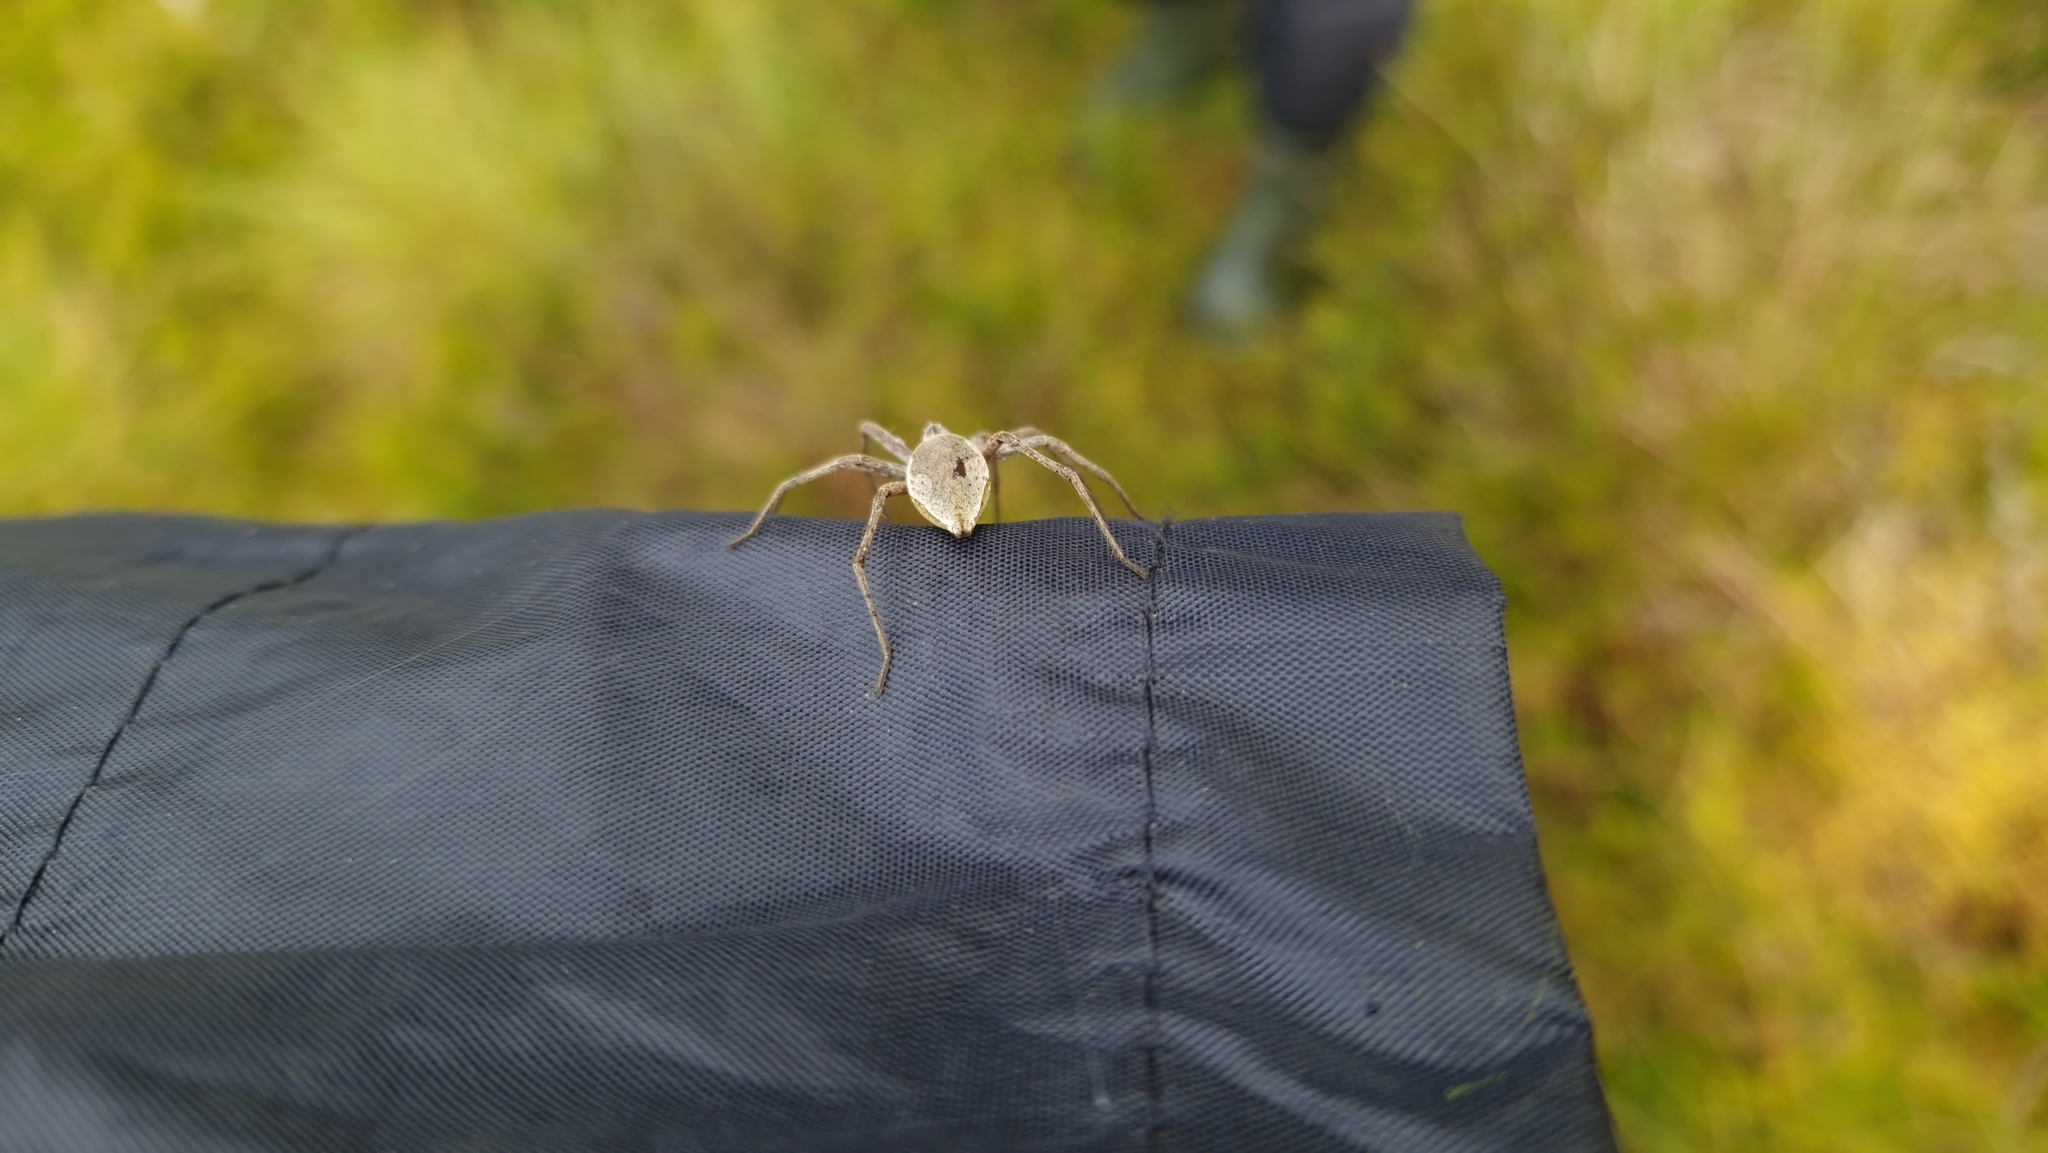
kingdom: Animalia
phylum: Arthropoda
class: Arachnida
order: Araneae
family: Pisauridae
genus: Pisaura
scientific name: Pisaura mirabilis
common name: Tent spider
